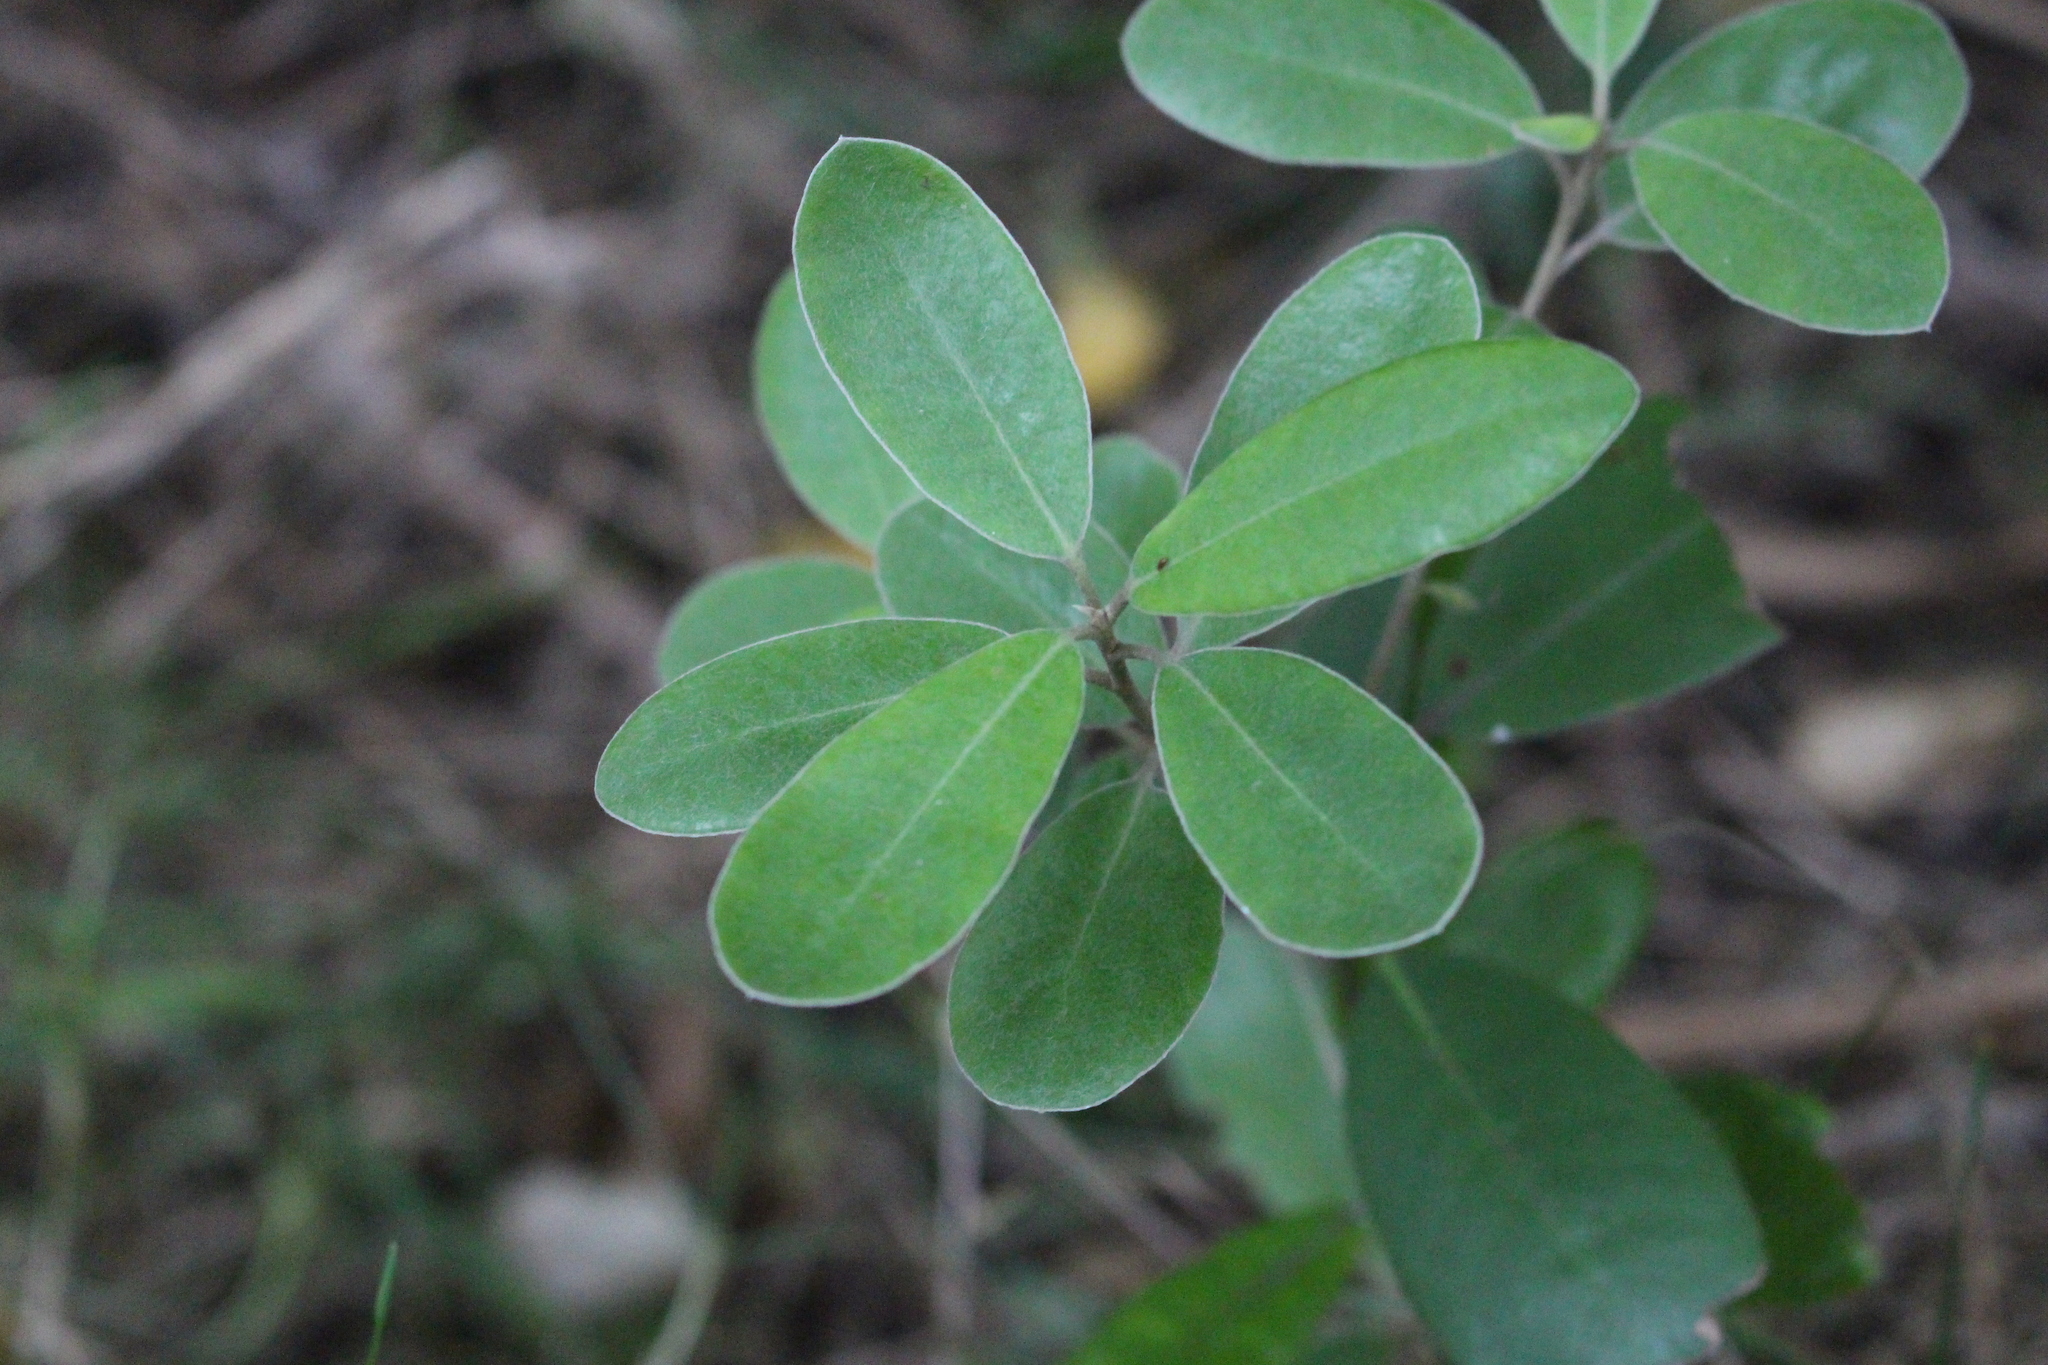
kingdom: Plantae
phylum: Tracheophyta
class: Magnoliopsida
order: Apiales
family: Pittosporaceae
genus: Pittosporum
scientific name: Pittosporum ralphii
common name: Ralph's desertwillow
